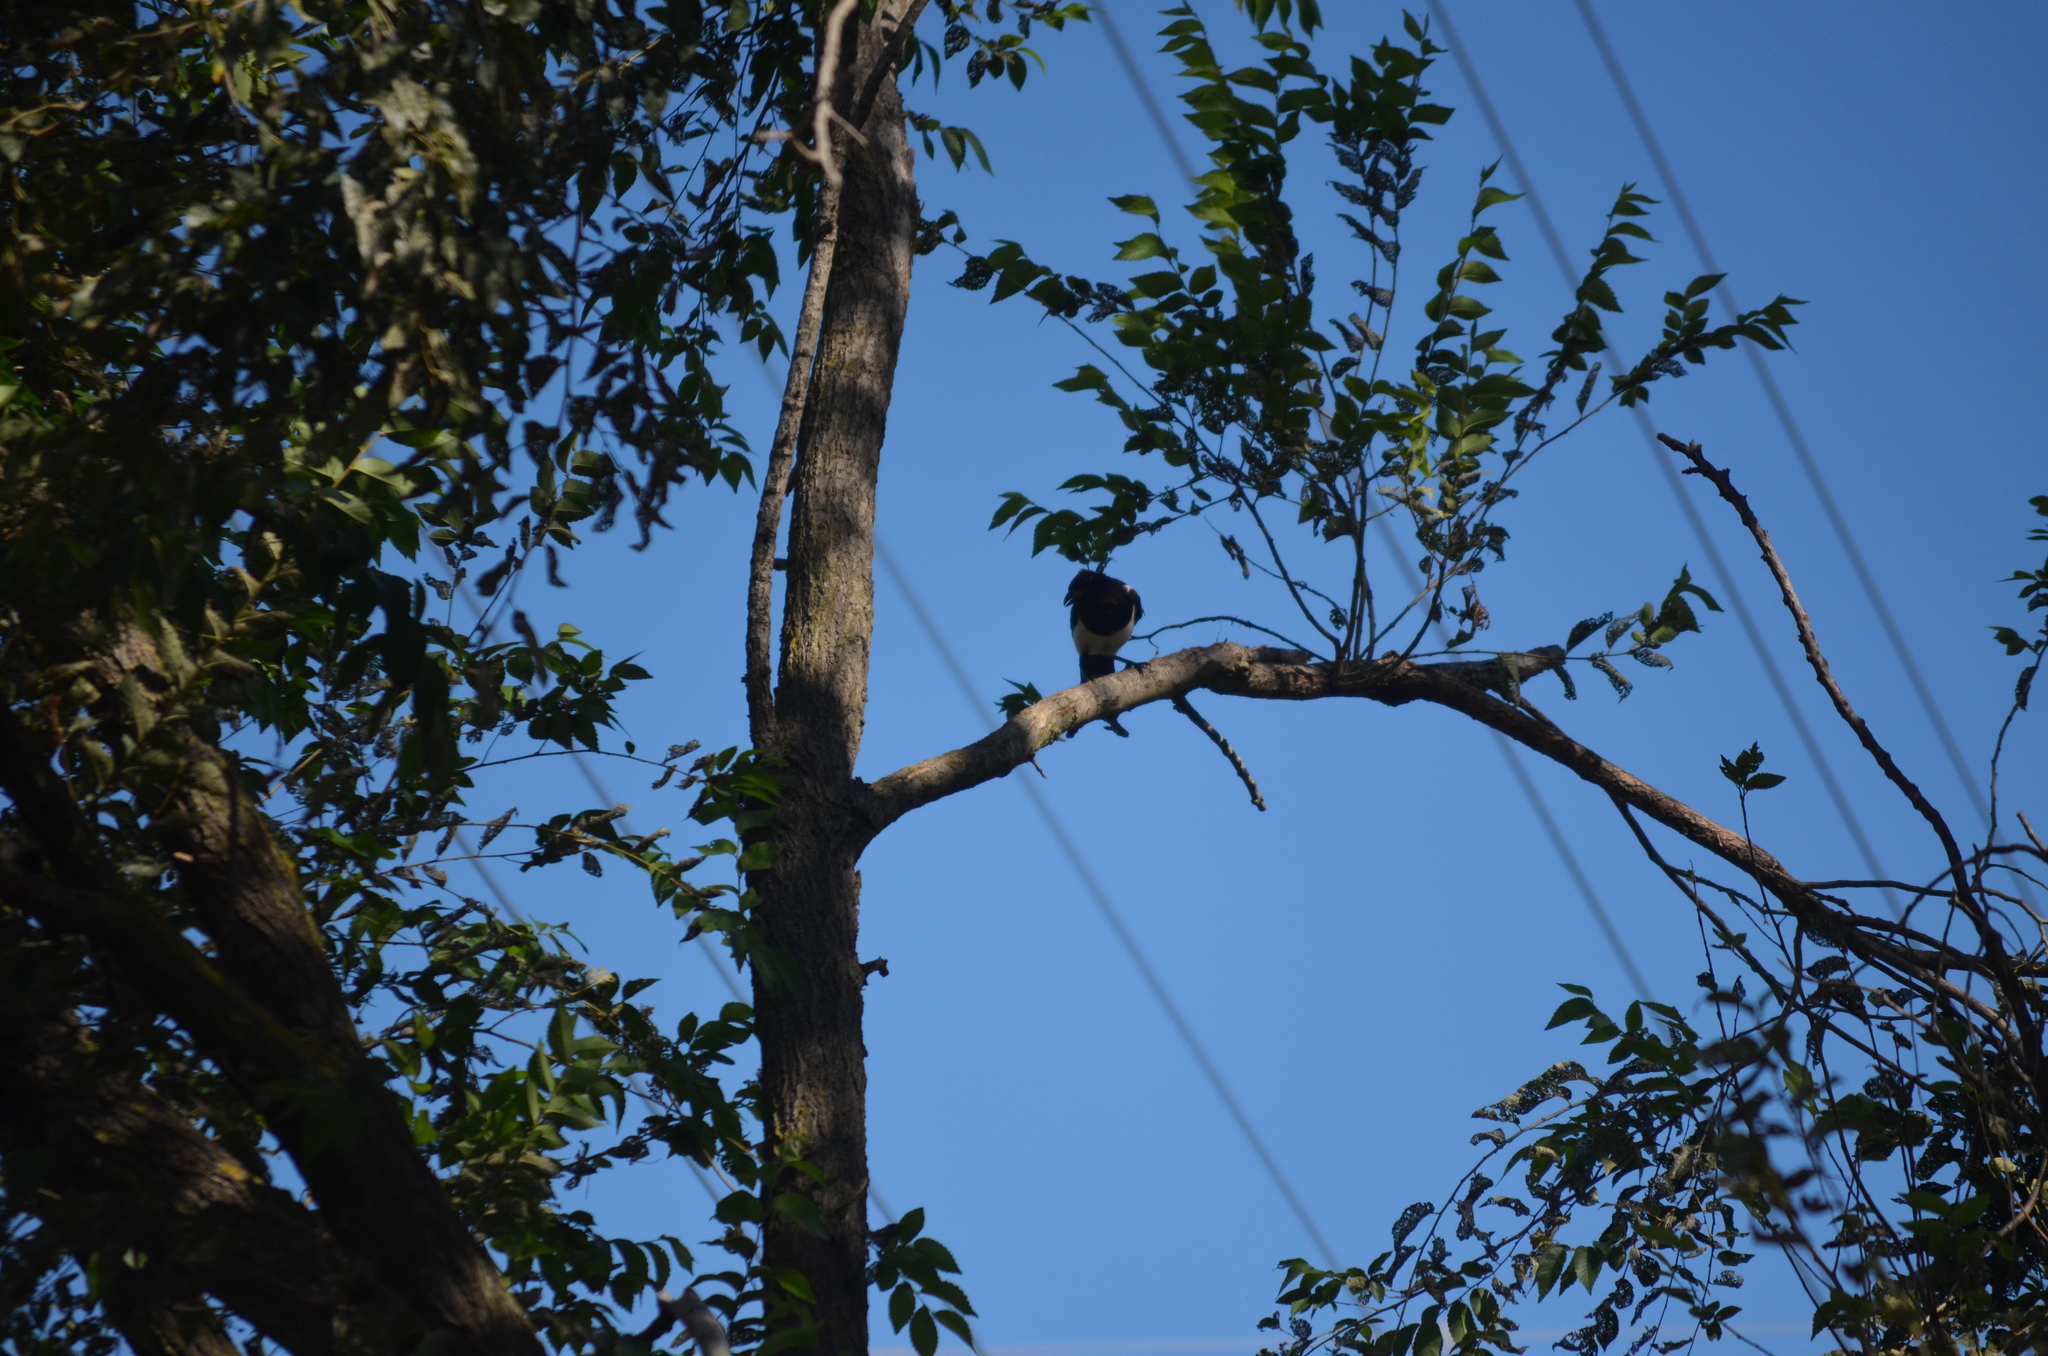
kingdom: Animalia
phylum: Chordata
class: Aves
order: Passeriformes
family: Corvidae
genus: Pica
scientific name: Pica pica
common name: Eurasian magpie
